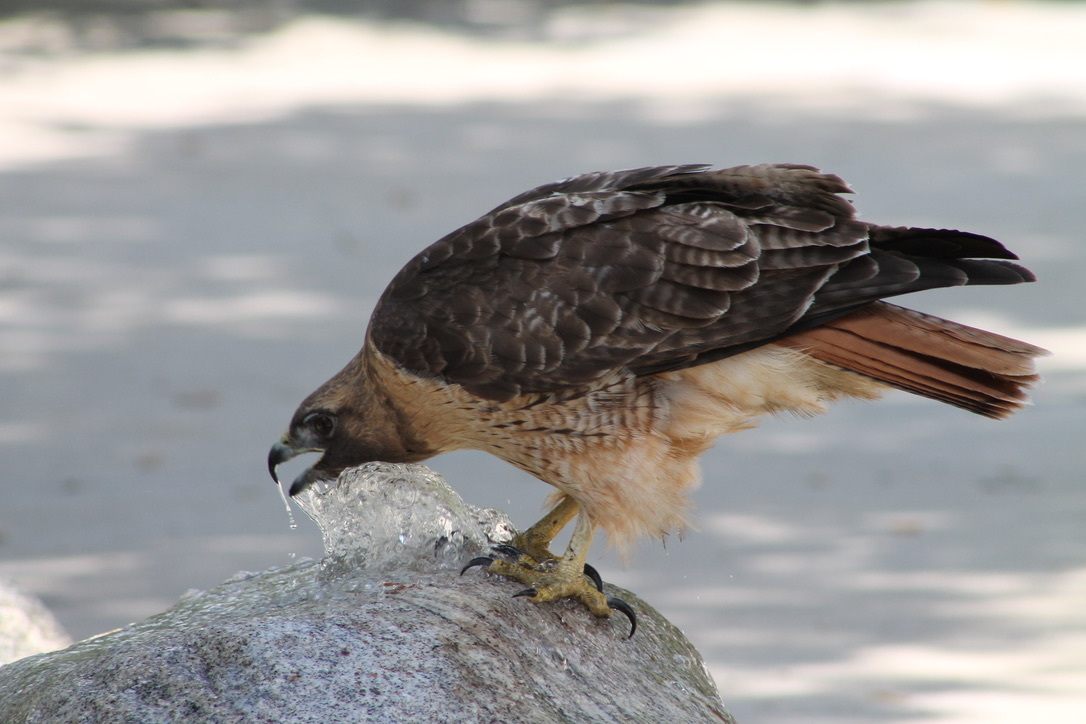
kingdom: Animalia
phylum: Chordata
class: Aves
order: Accipitriformes
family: Accipitridae
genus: Buteo
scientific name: Buteo jamaicensis
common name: Red-tailed hawk
